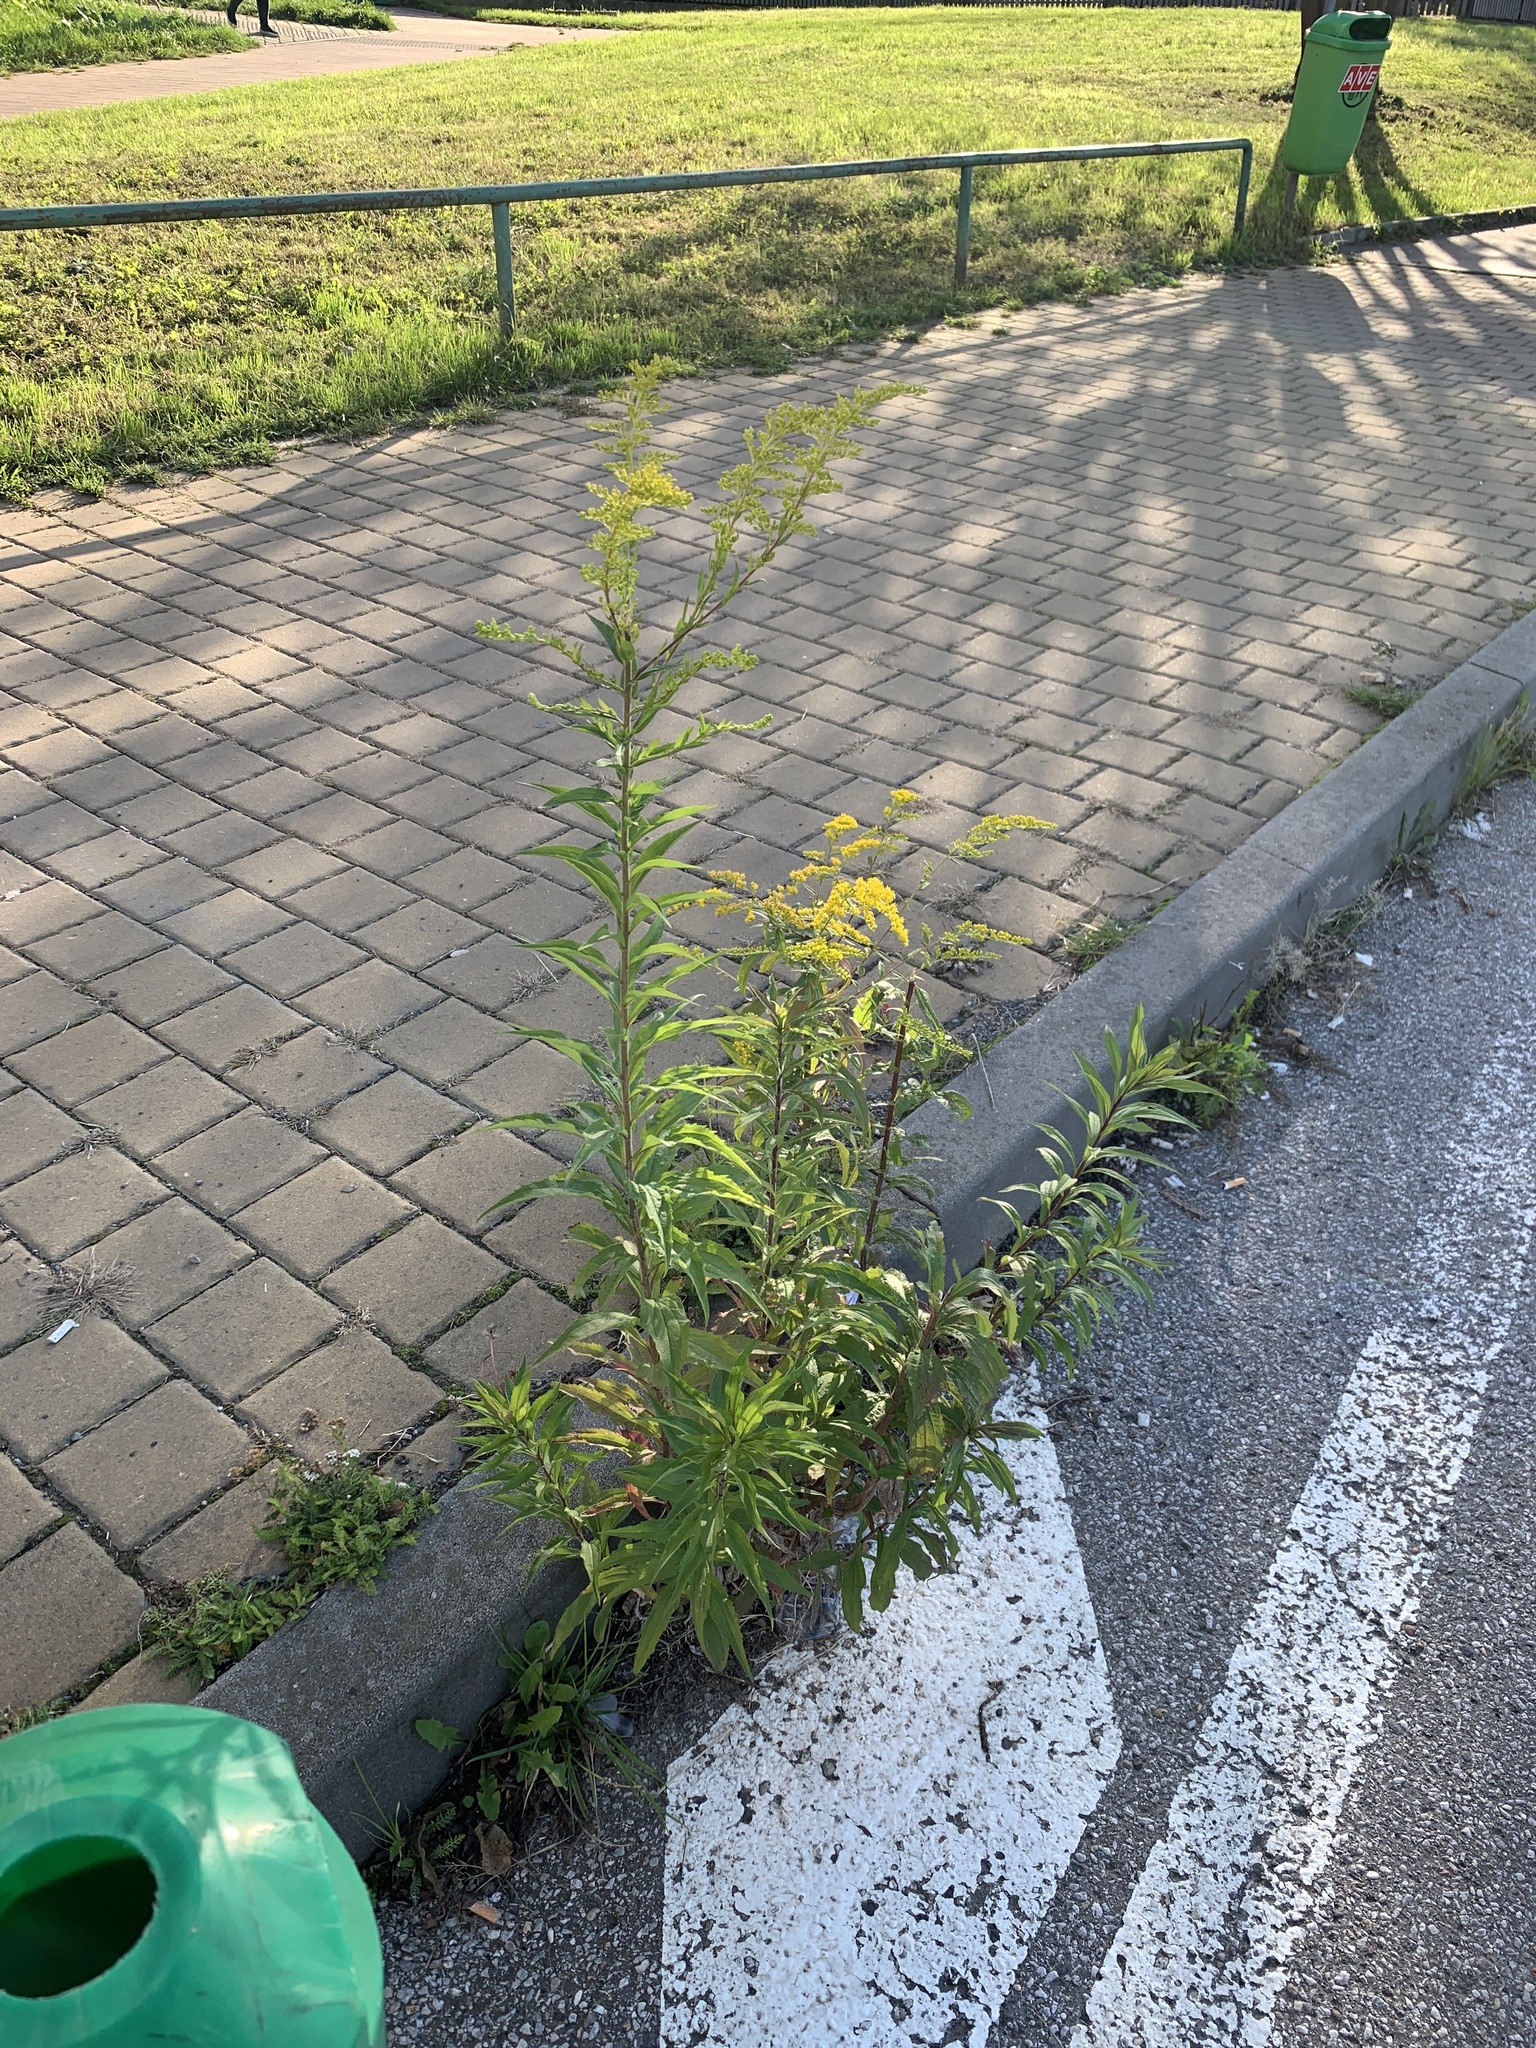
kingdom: Plantae
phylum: Tracheophyta
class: Magnoliopsida
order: Asterales
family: Asteraceae
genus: Solidago
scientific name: Solidago canadensis
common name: Canada goldenrod
